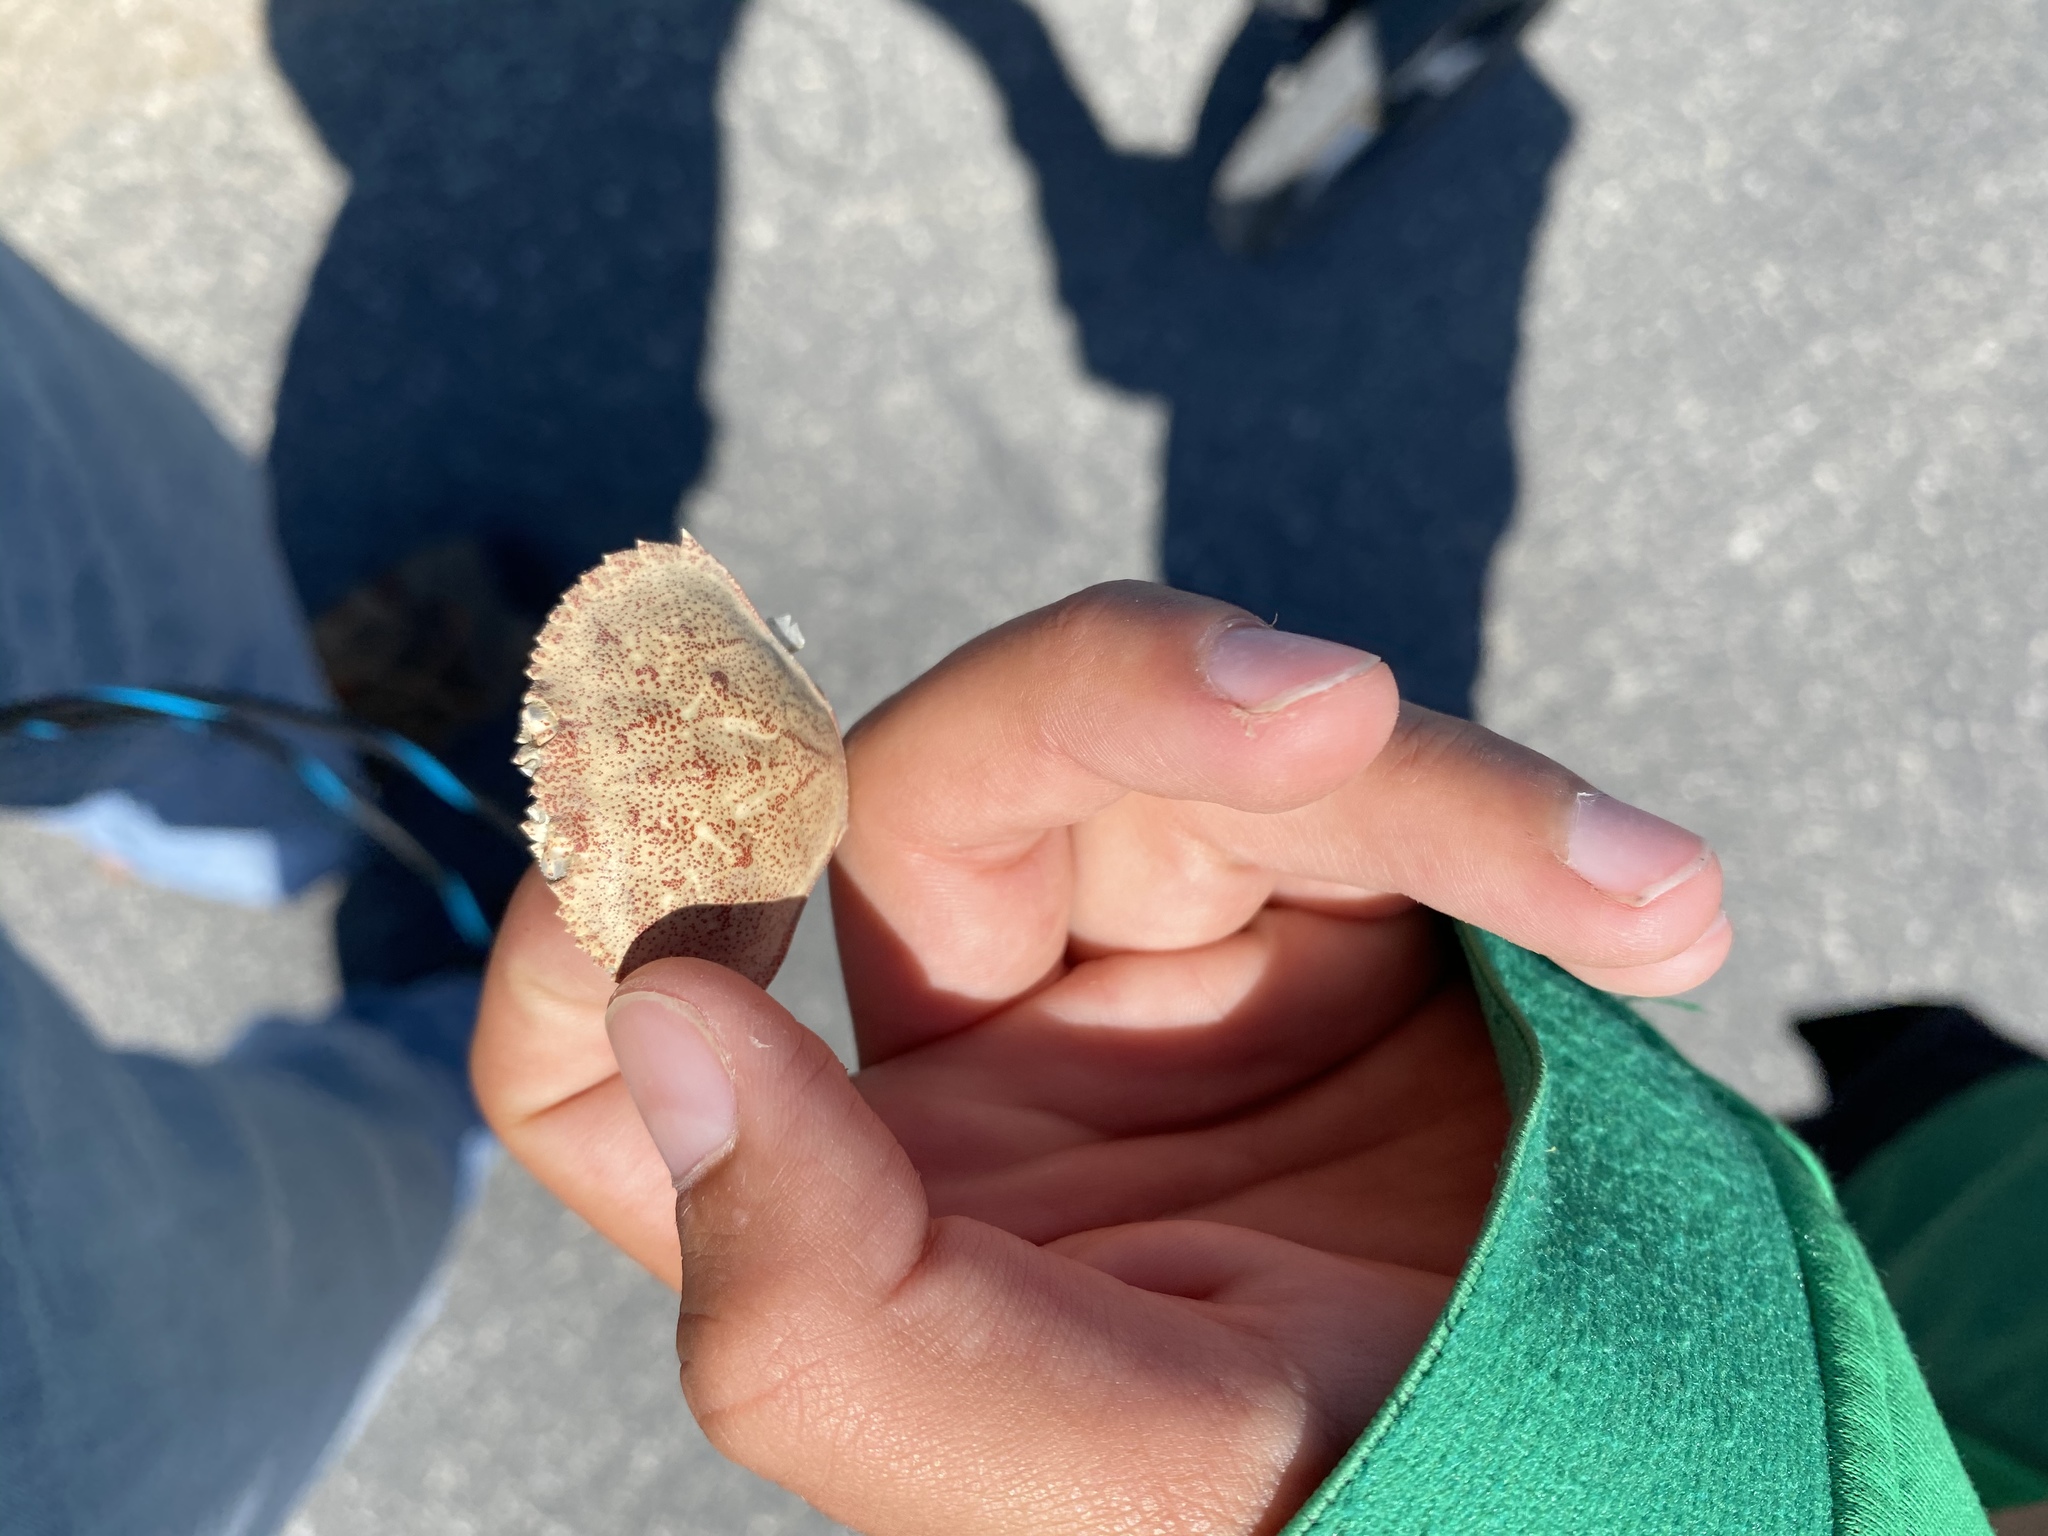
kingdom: Animalia
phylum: Arthropoda
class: Malacostraca
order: Decapoda
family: Cancridae
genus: Metacarcinus
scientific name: Metacarcinus magister
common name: Californian crab
